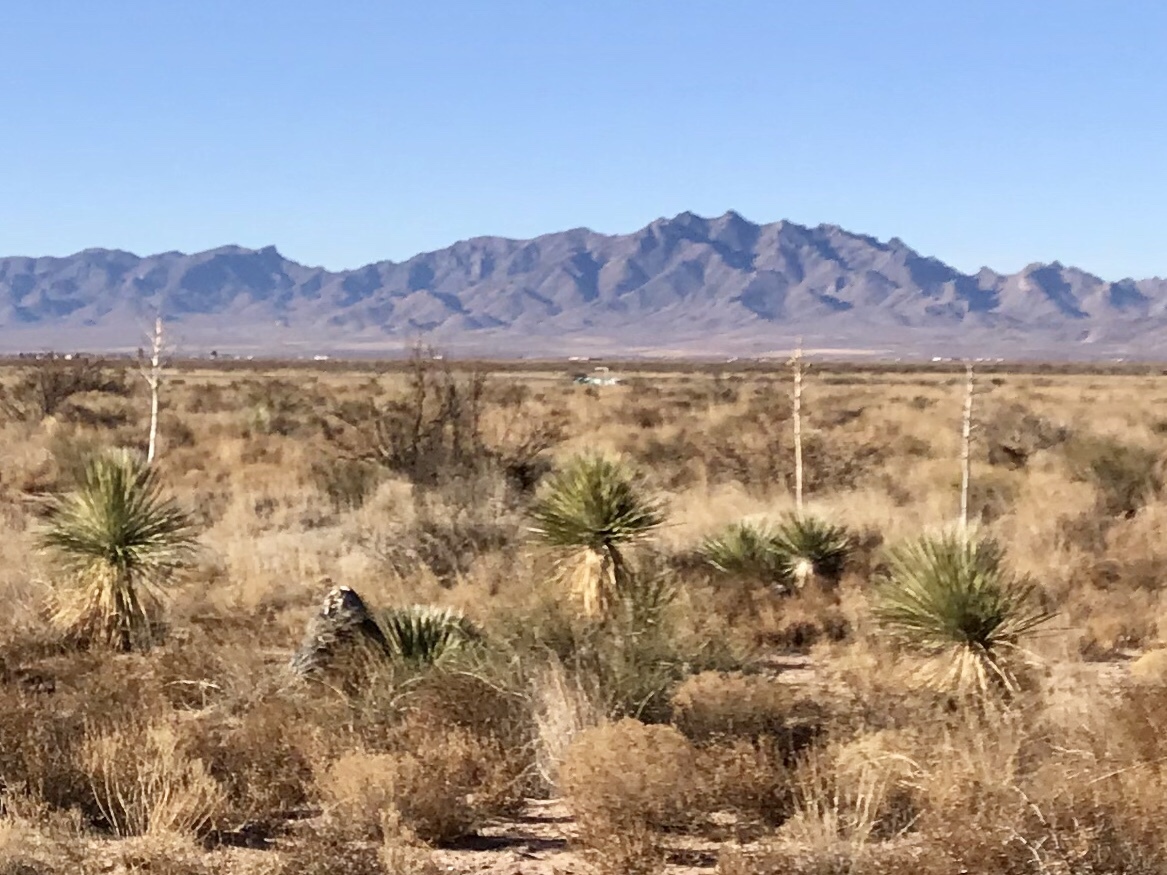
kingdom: Plantae
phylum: Tracheophyta
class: Liliopsida
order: Asparagales
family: Asparagaceae
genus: Yucca
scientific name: Yucca elata
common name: Palmella
